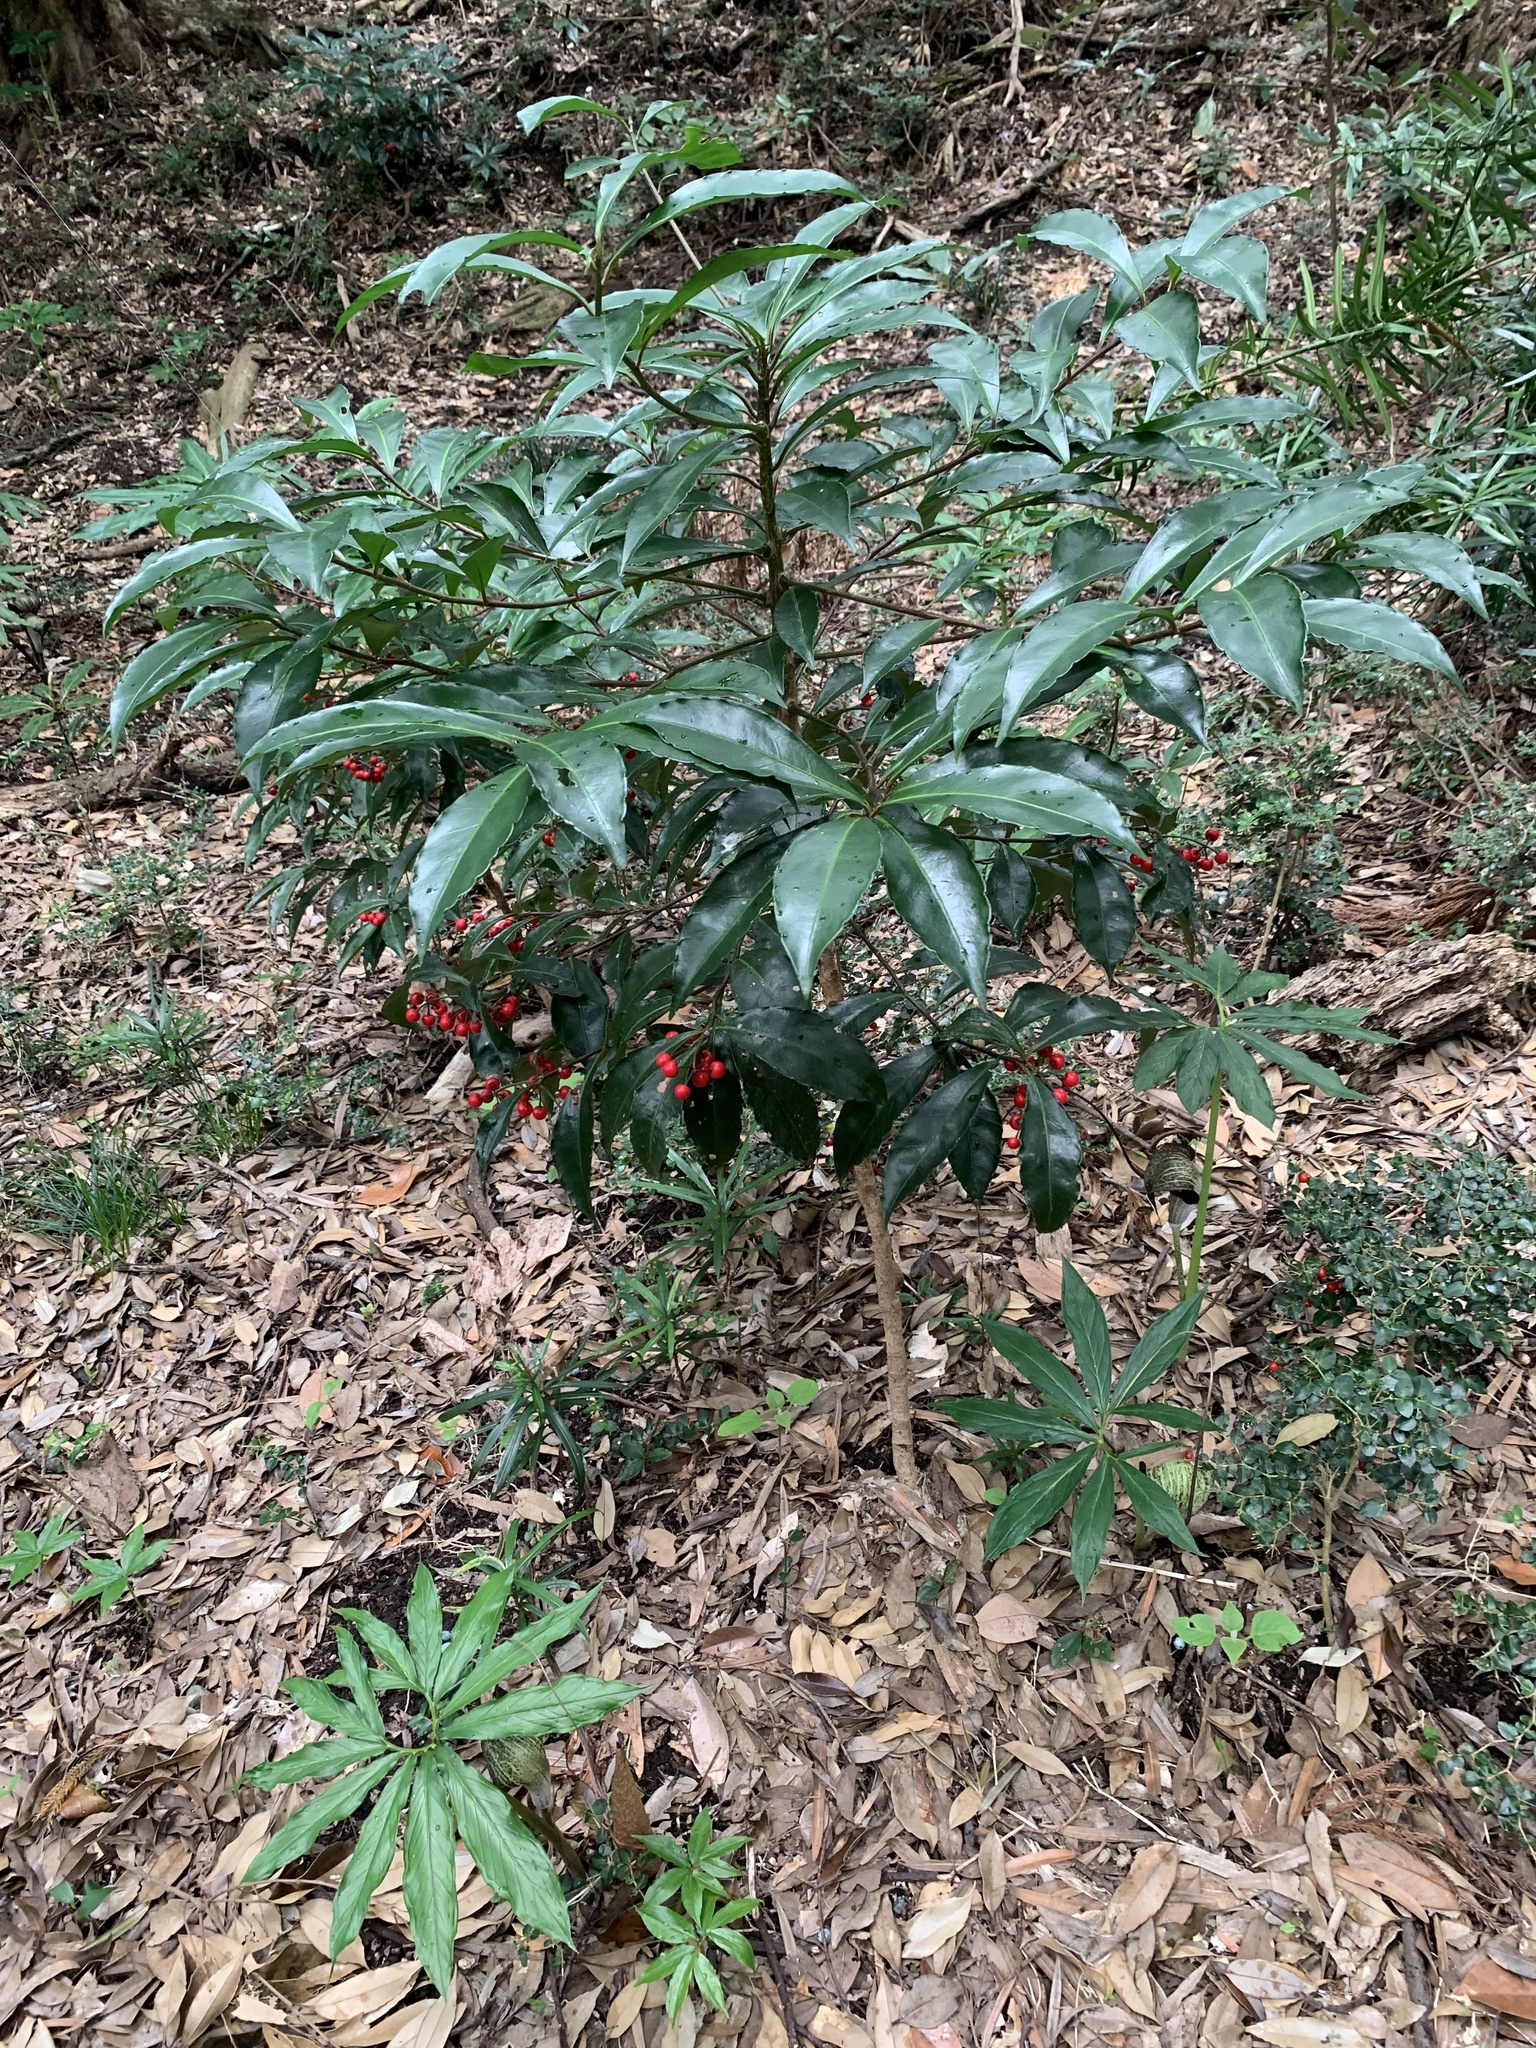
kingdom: Plantae
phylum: Tracheophyta
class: Magnoliopsida
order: Ericales
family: Primulaceae
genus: Ardisia
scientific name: Ardisia crenata
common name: Hen's eyes
